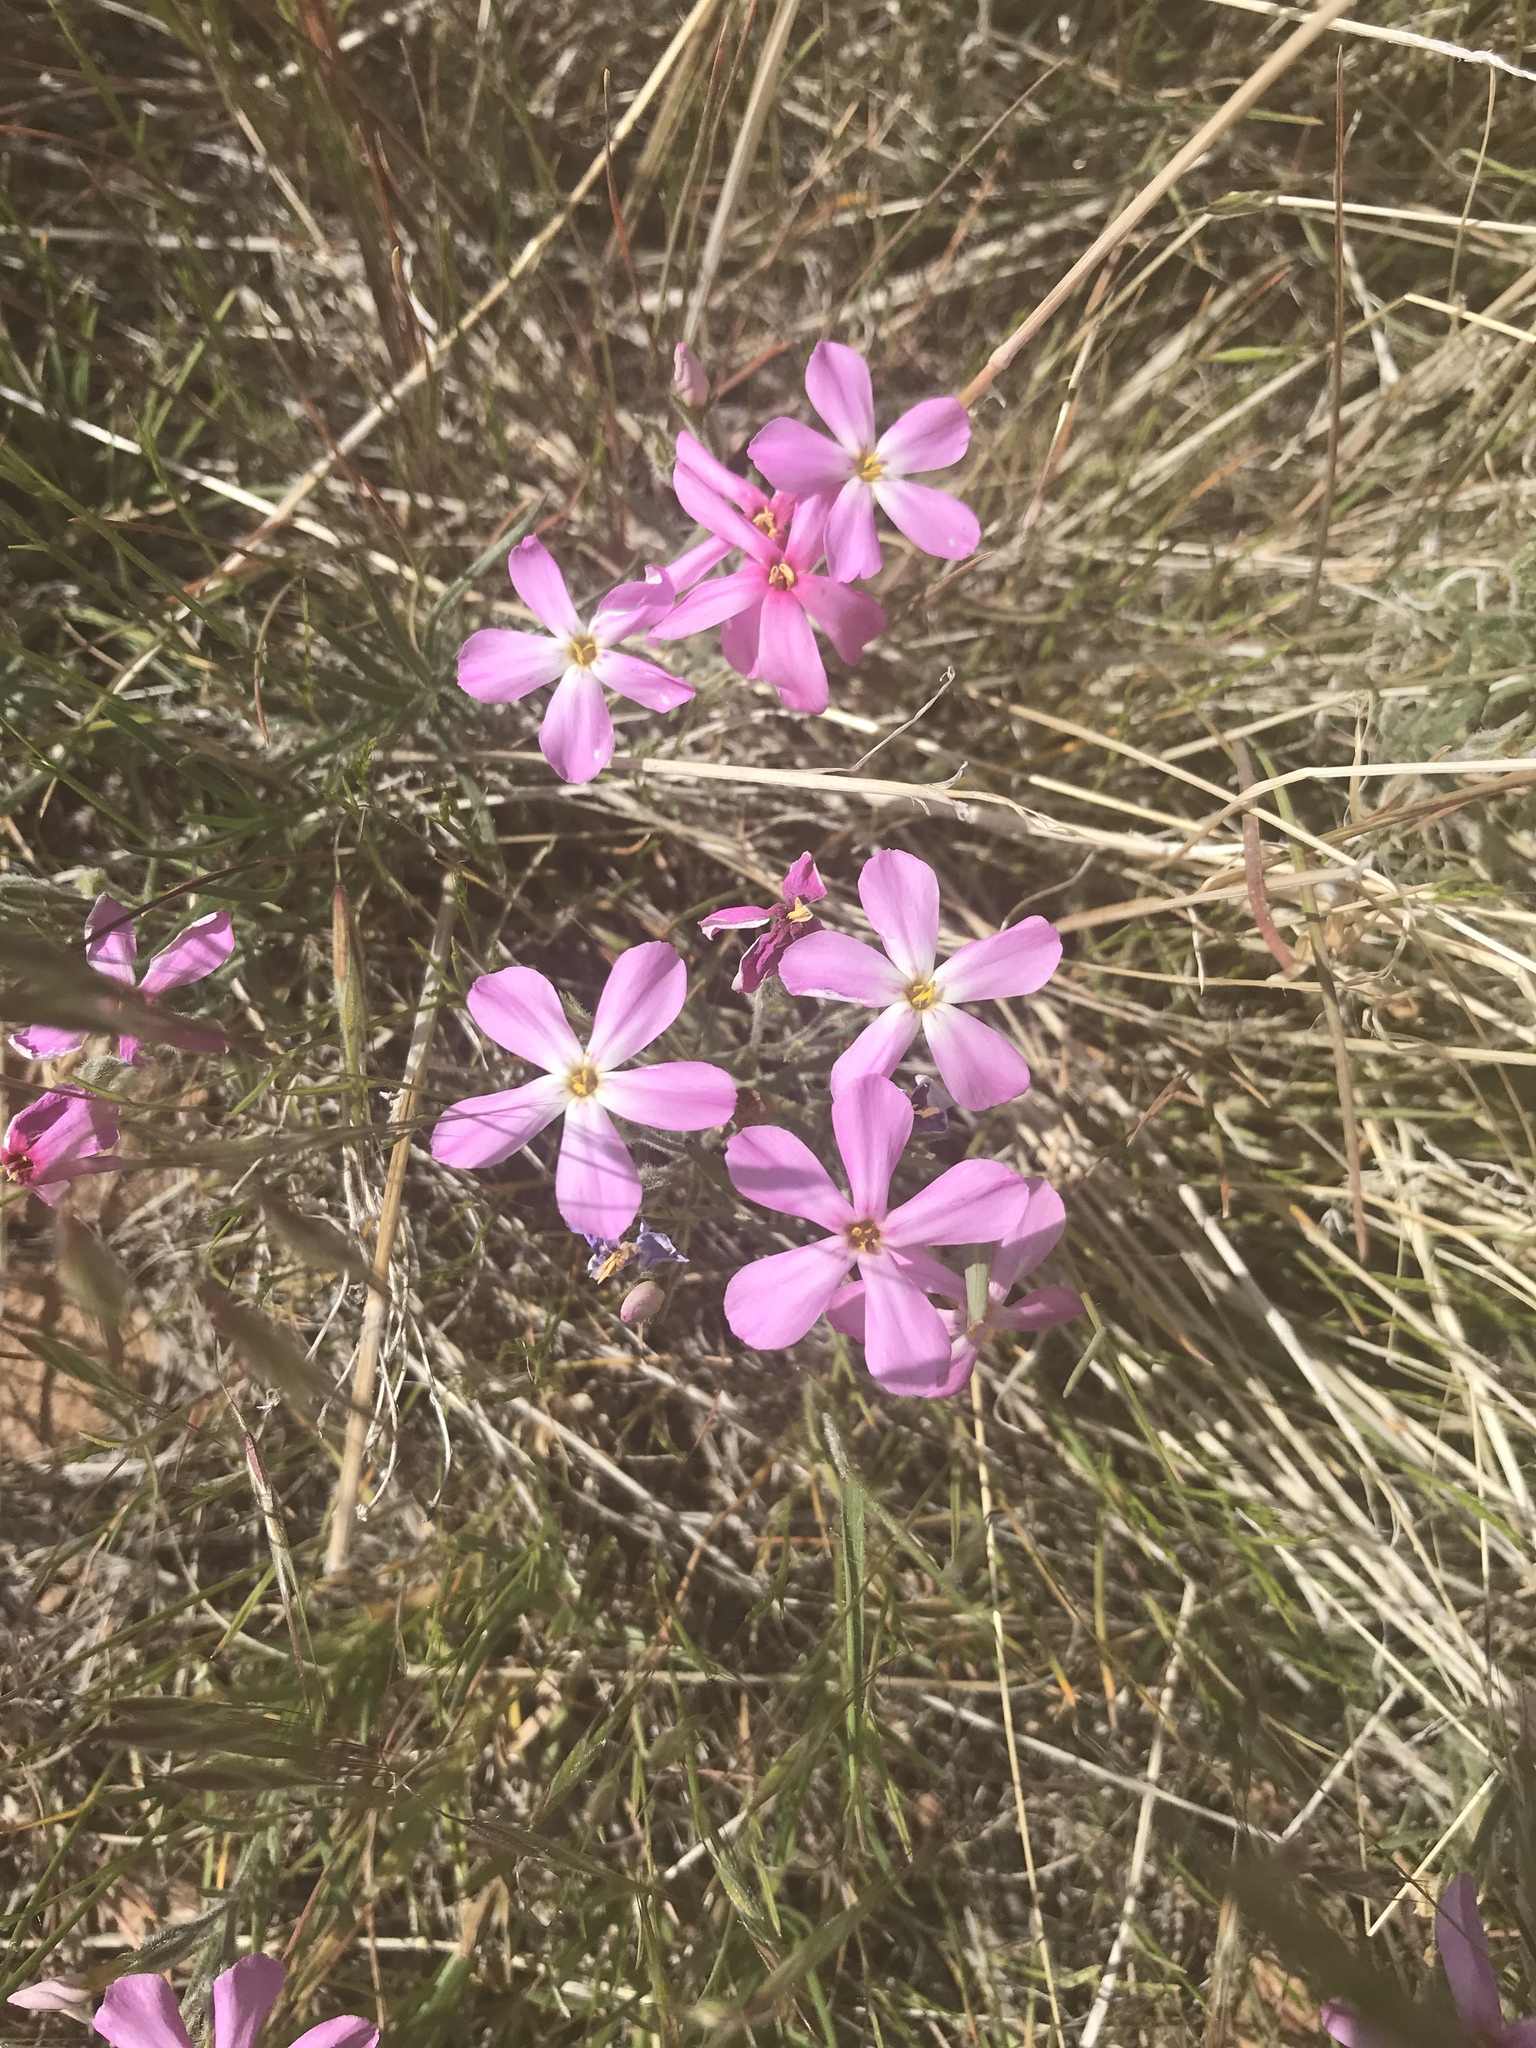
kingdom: Plantae
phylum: Tracheophyta
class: Magnoliopsida
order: Ericales
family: Polemoniaceae
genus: Phlox
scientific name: Phlox longifolia
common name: Longleaf phlox
